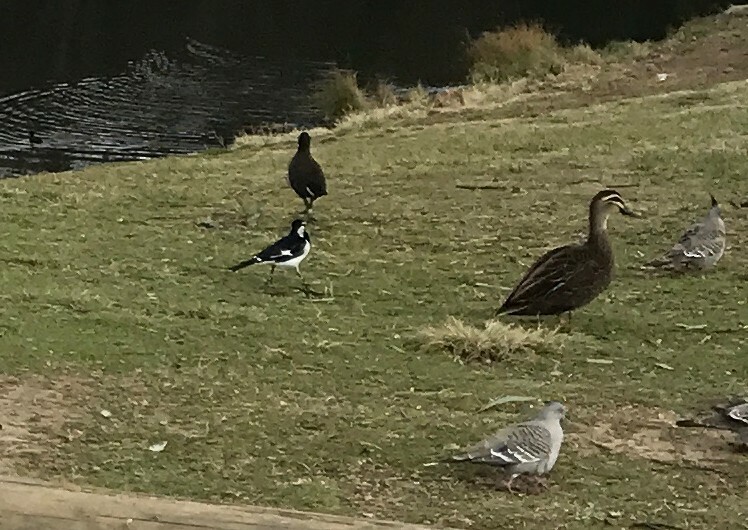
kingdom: Animalia
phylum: Chordata
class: Aves
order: Passeriformes
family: Monarchidae
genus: Grallina
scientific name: Grallina cyanoleuca
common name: Magpie-lark
